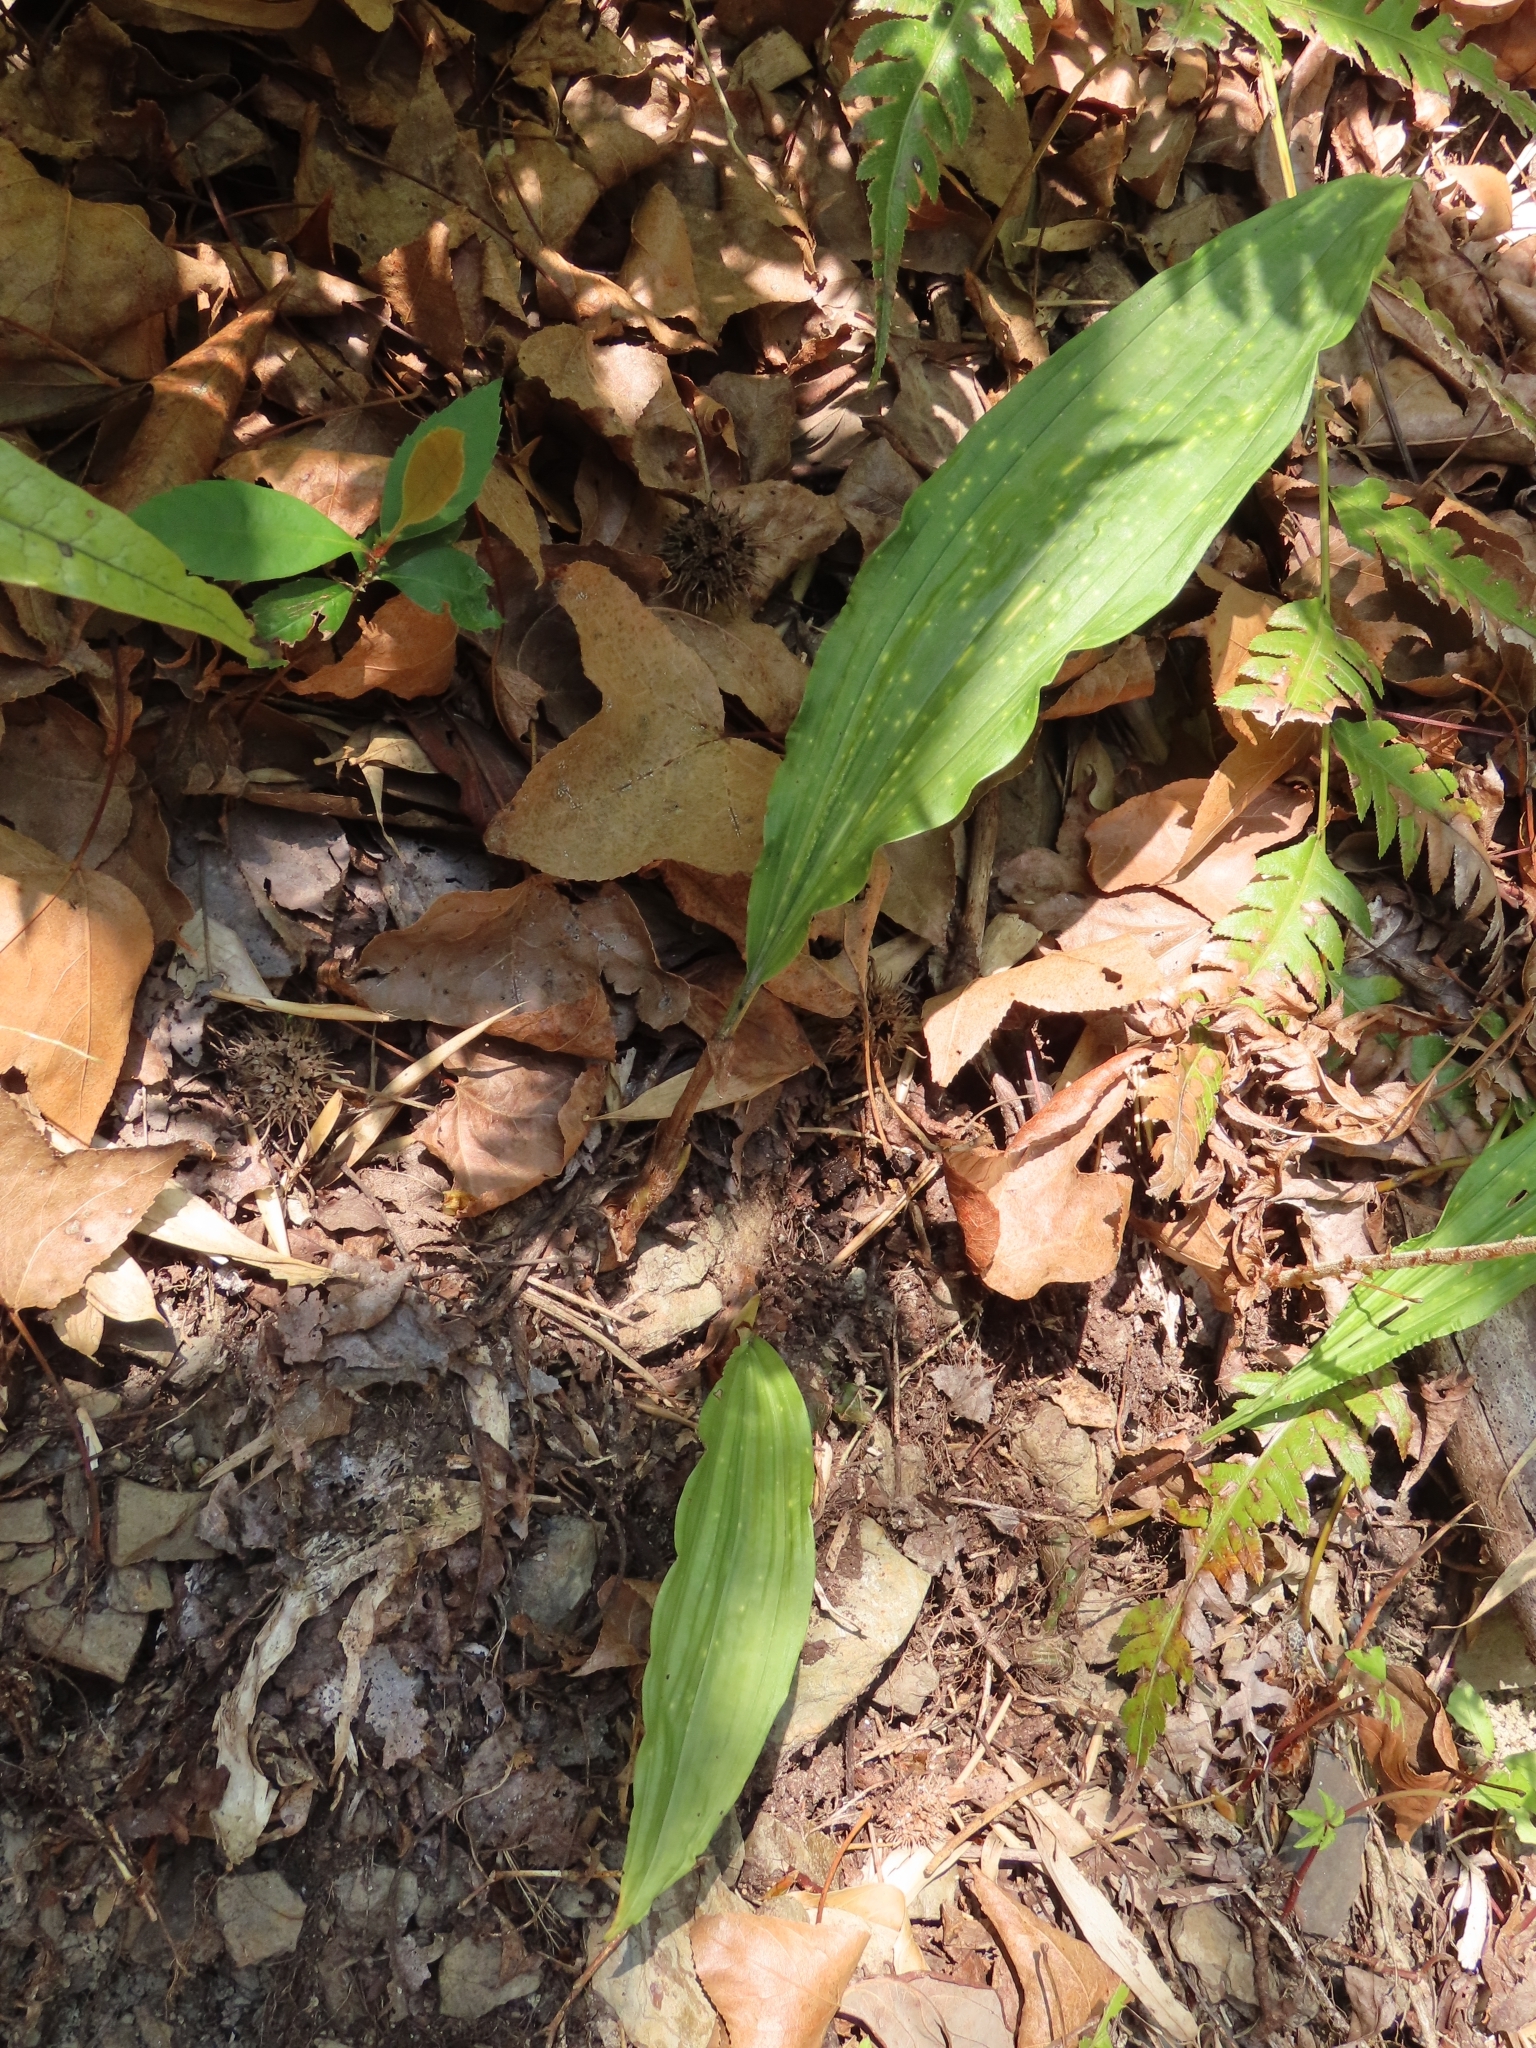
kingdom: Plantae
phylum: Tracheophyta
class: Liliopsida
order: Asparagales
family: Orchidaceae
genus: Cremastra
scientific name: Cremastra appendiculata
